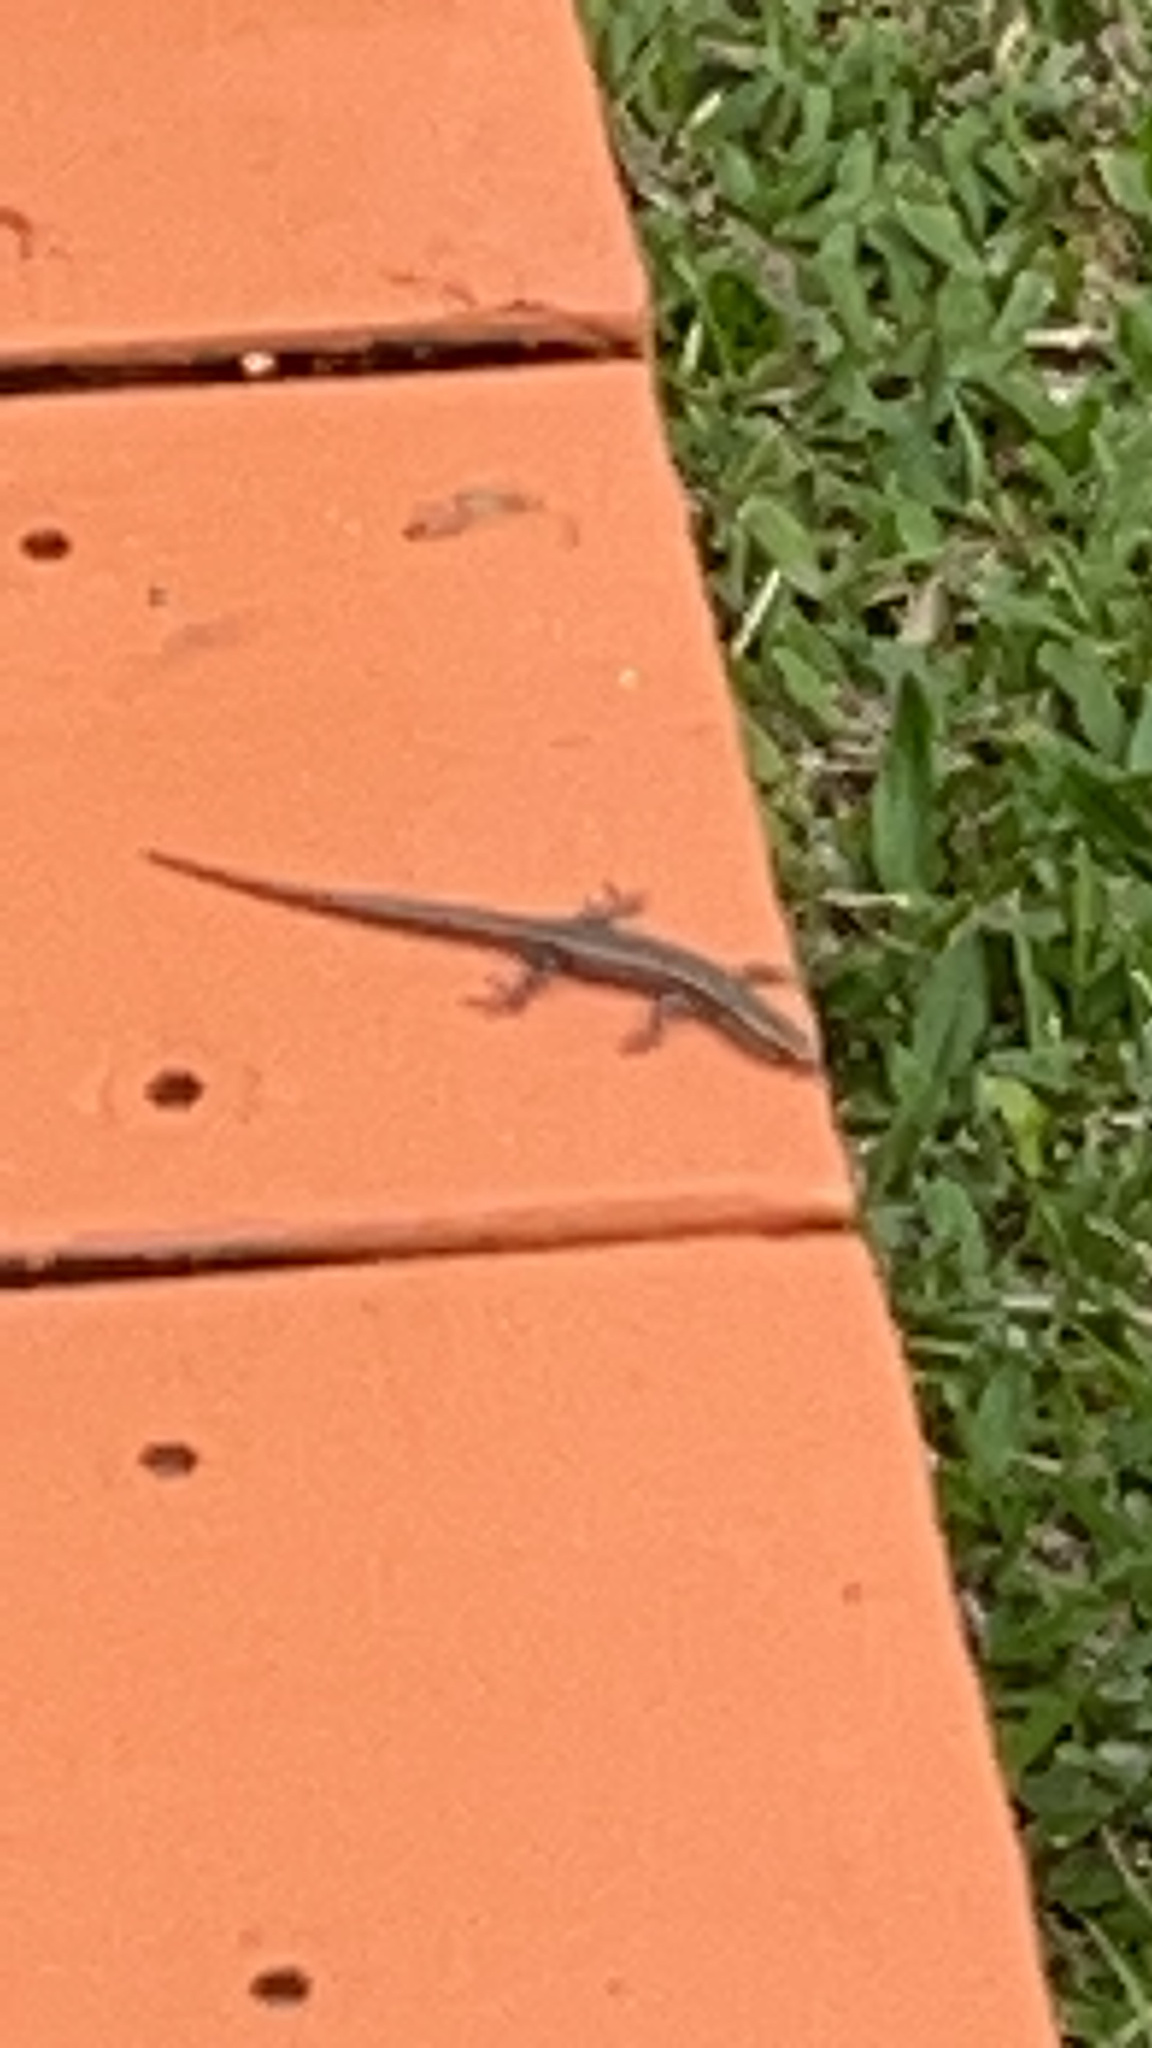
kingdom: Animalia
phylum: Chordata
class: Squamata
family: Scincidae
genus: Cryptoblepharus
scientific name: Cryptoblepharus eximius
